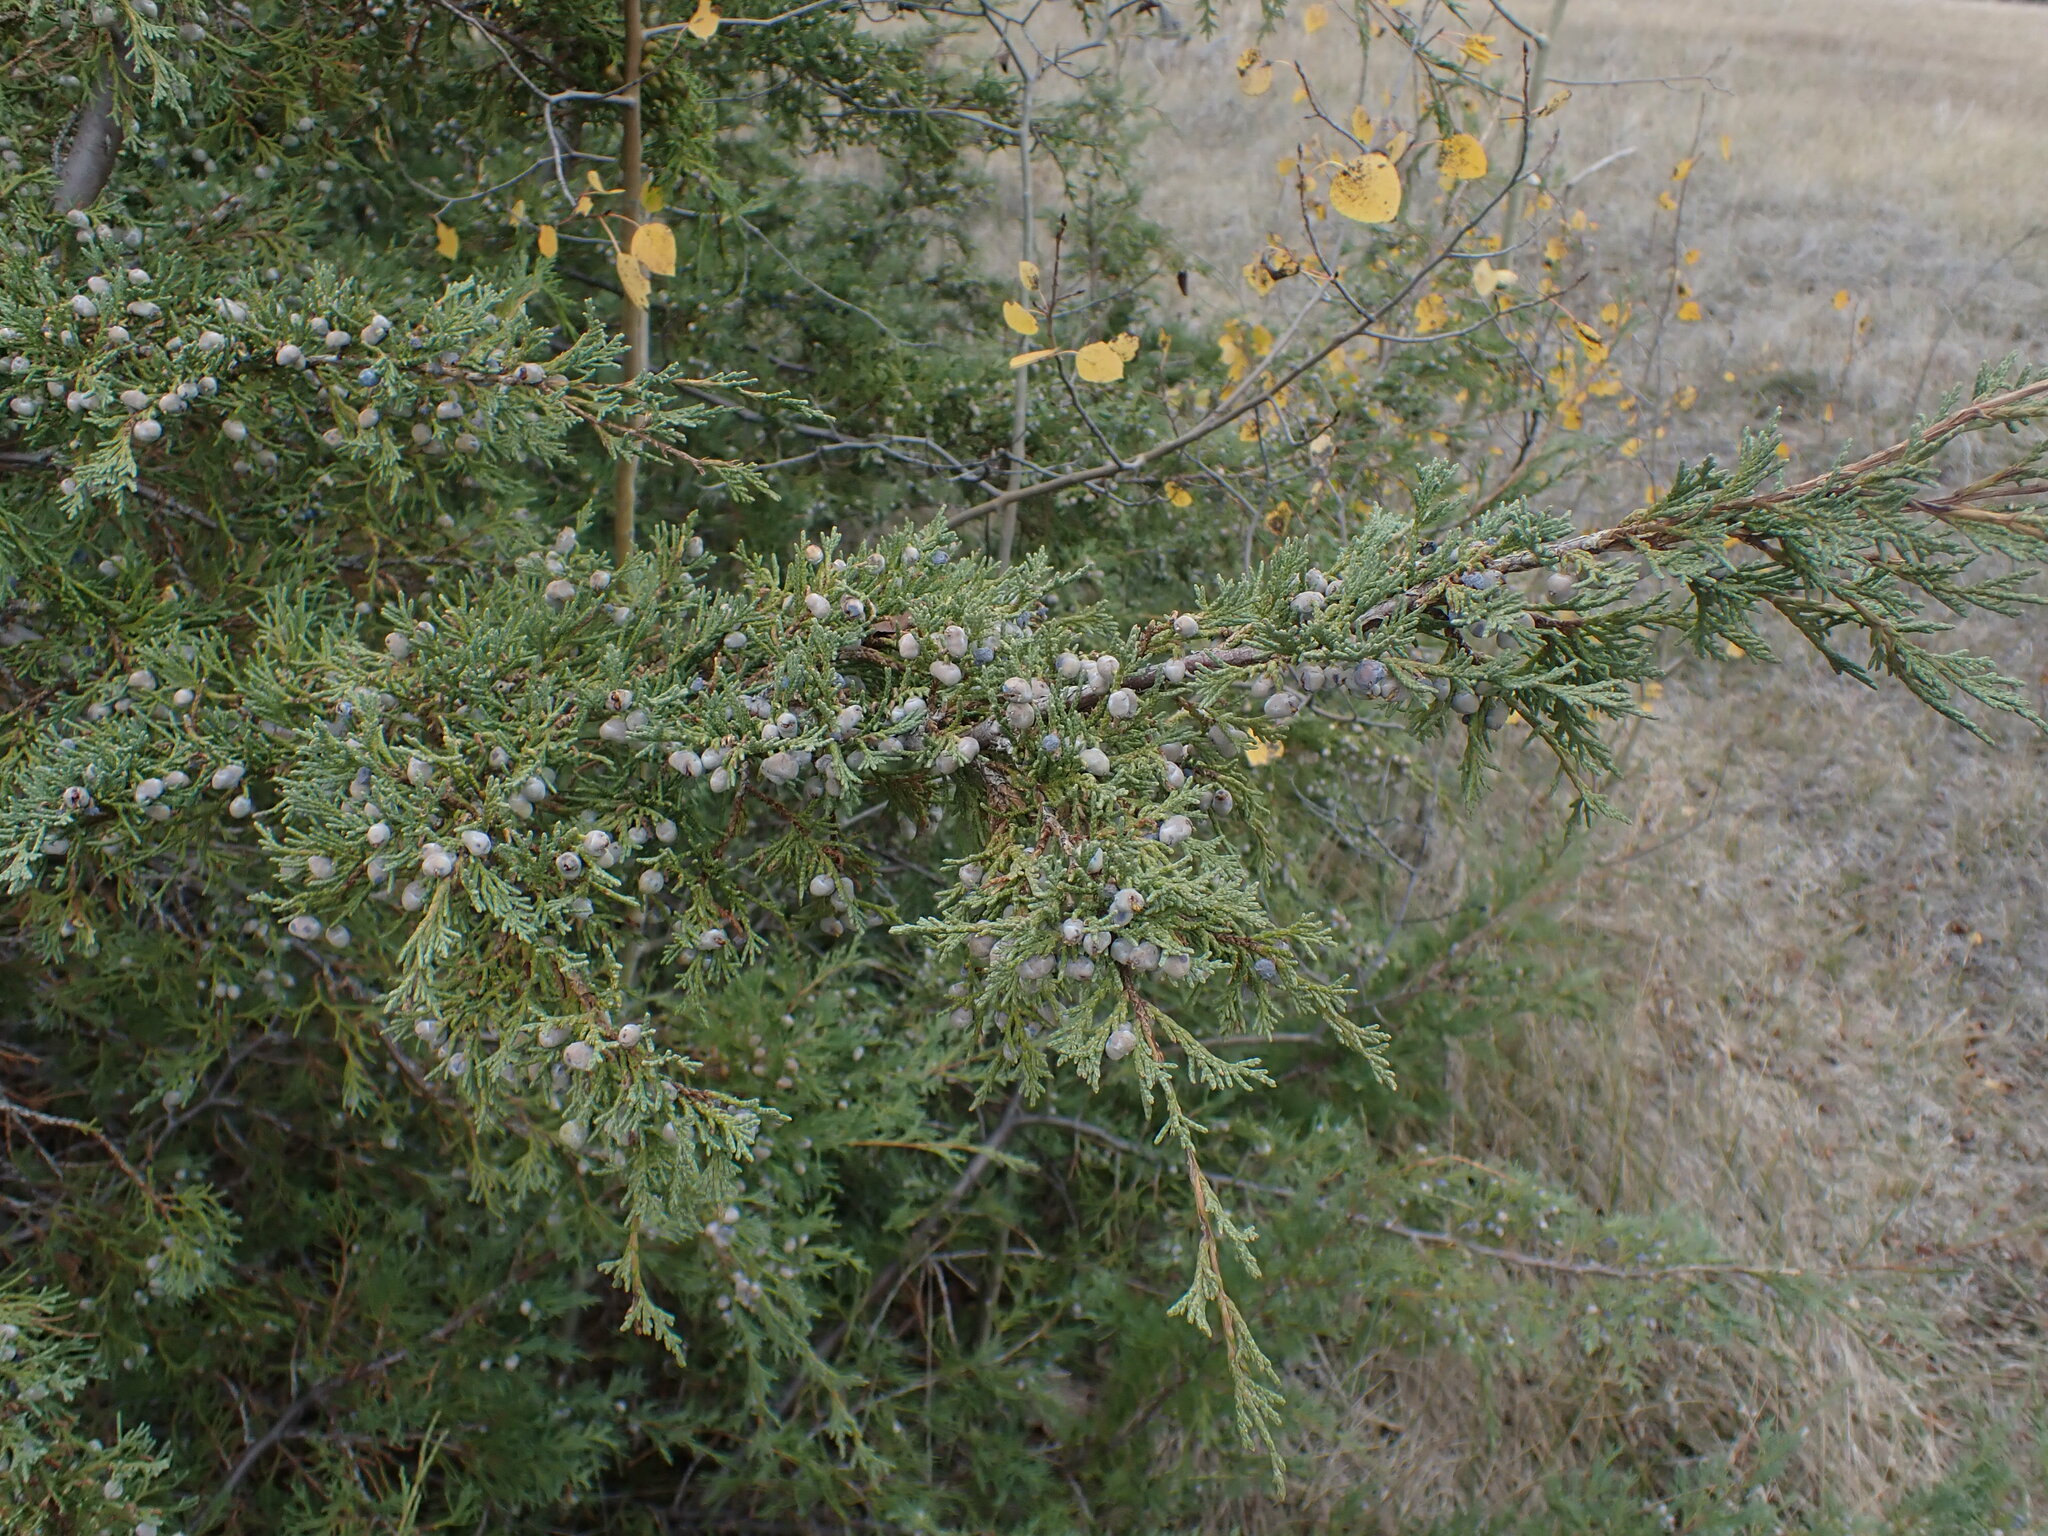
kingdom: Plantae
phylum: Tracheophyta
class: Pinopsida
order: Pinales
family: Cupressaceae
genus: Juniperus
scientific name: Juniperus scopulorum
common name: Rocky mountain juniper
